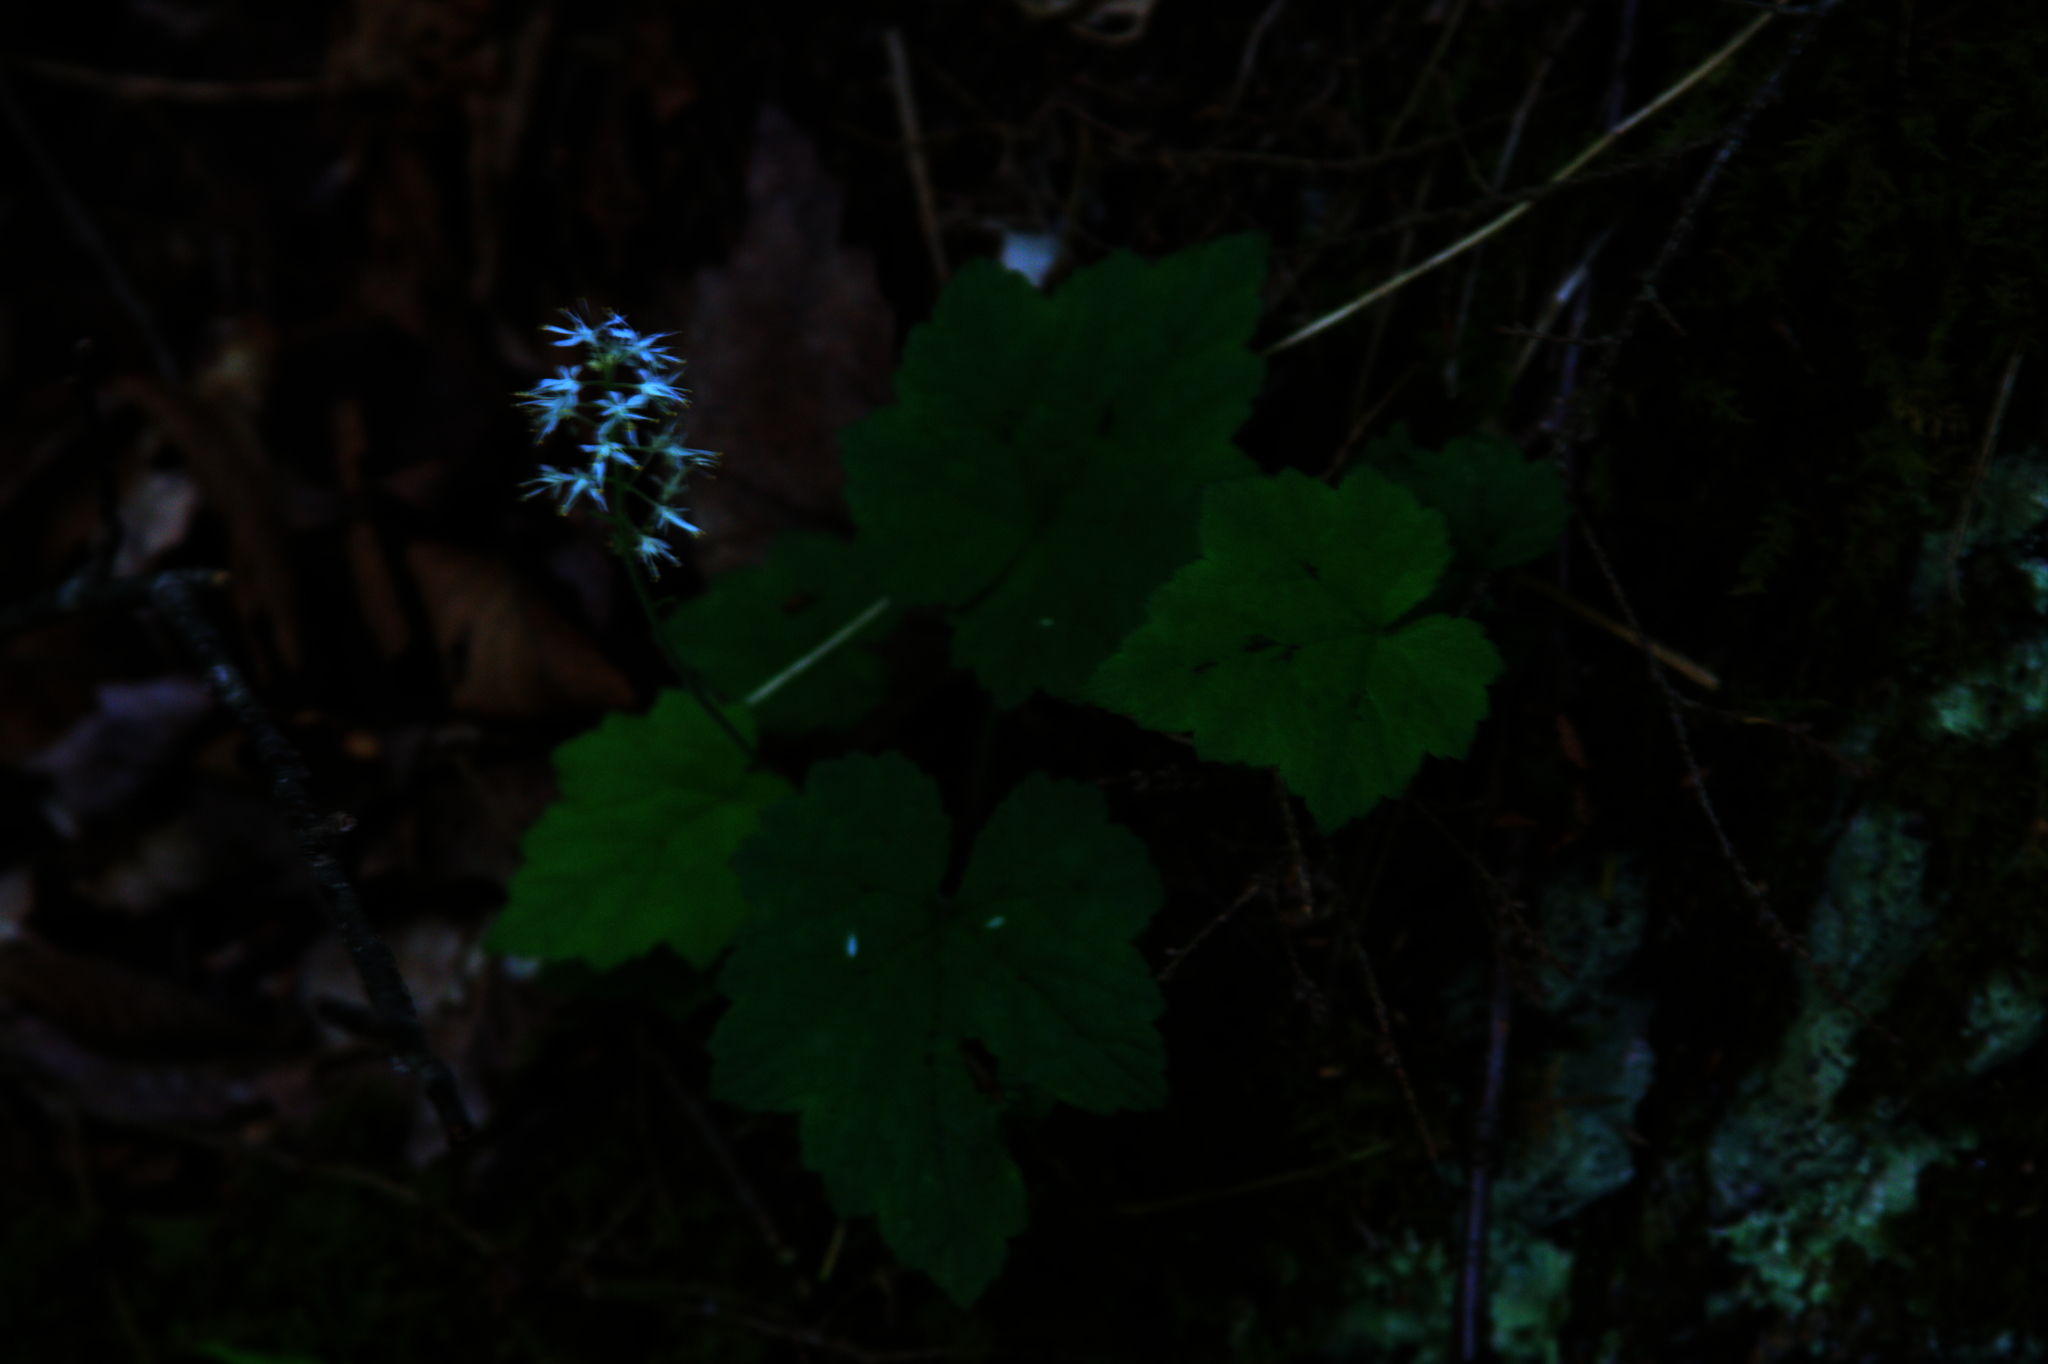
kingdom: Plantae
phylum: Tracheophyta
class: Magnoliopsida
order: Saxifragales
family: Saxifragaceae
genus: Tiarella
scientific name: Tiarella stolonifera
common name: Stoloniferous foamflower
